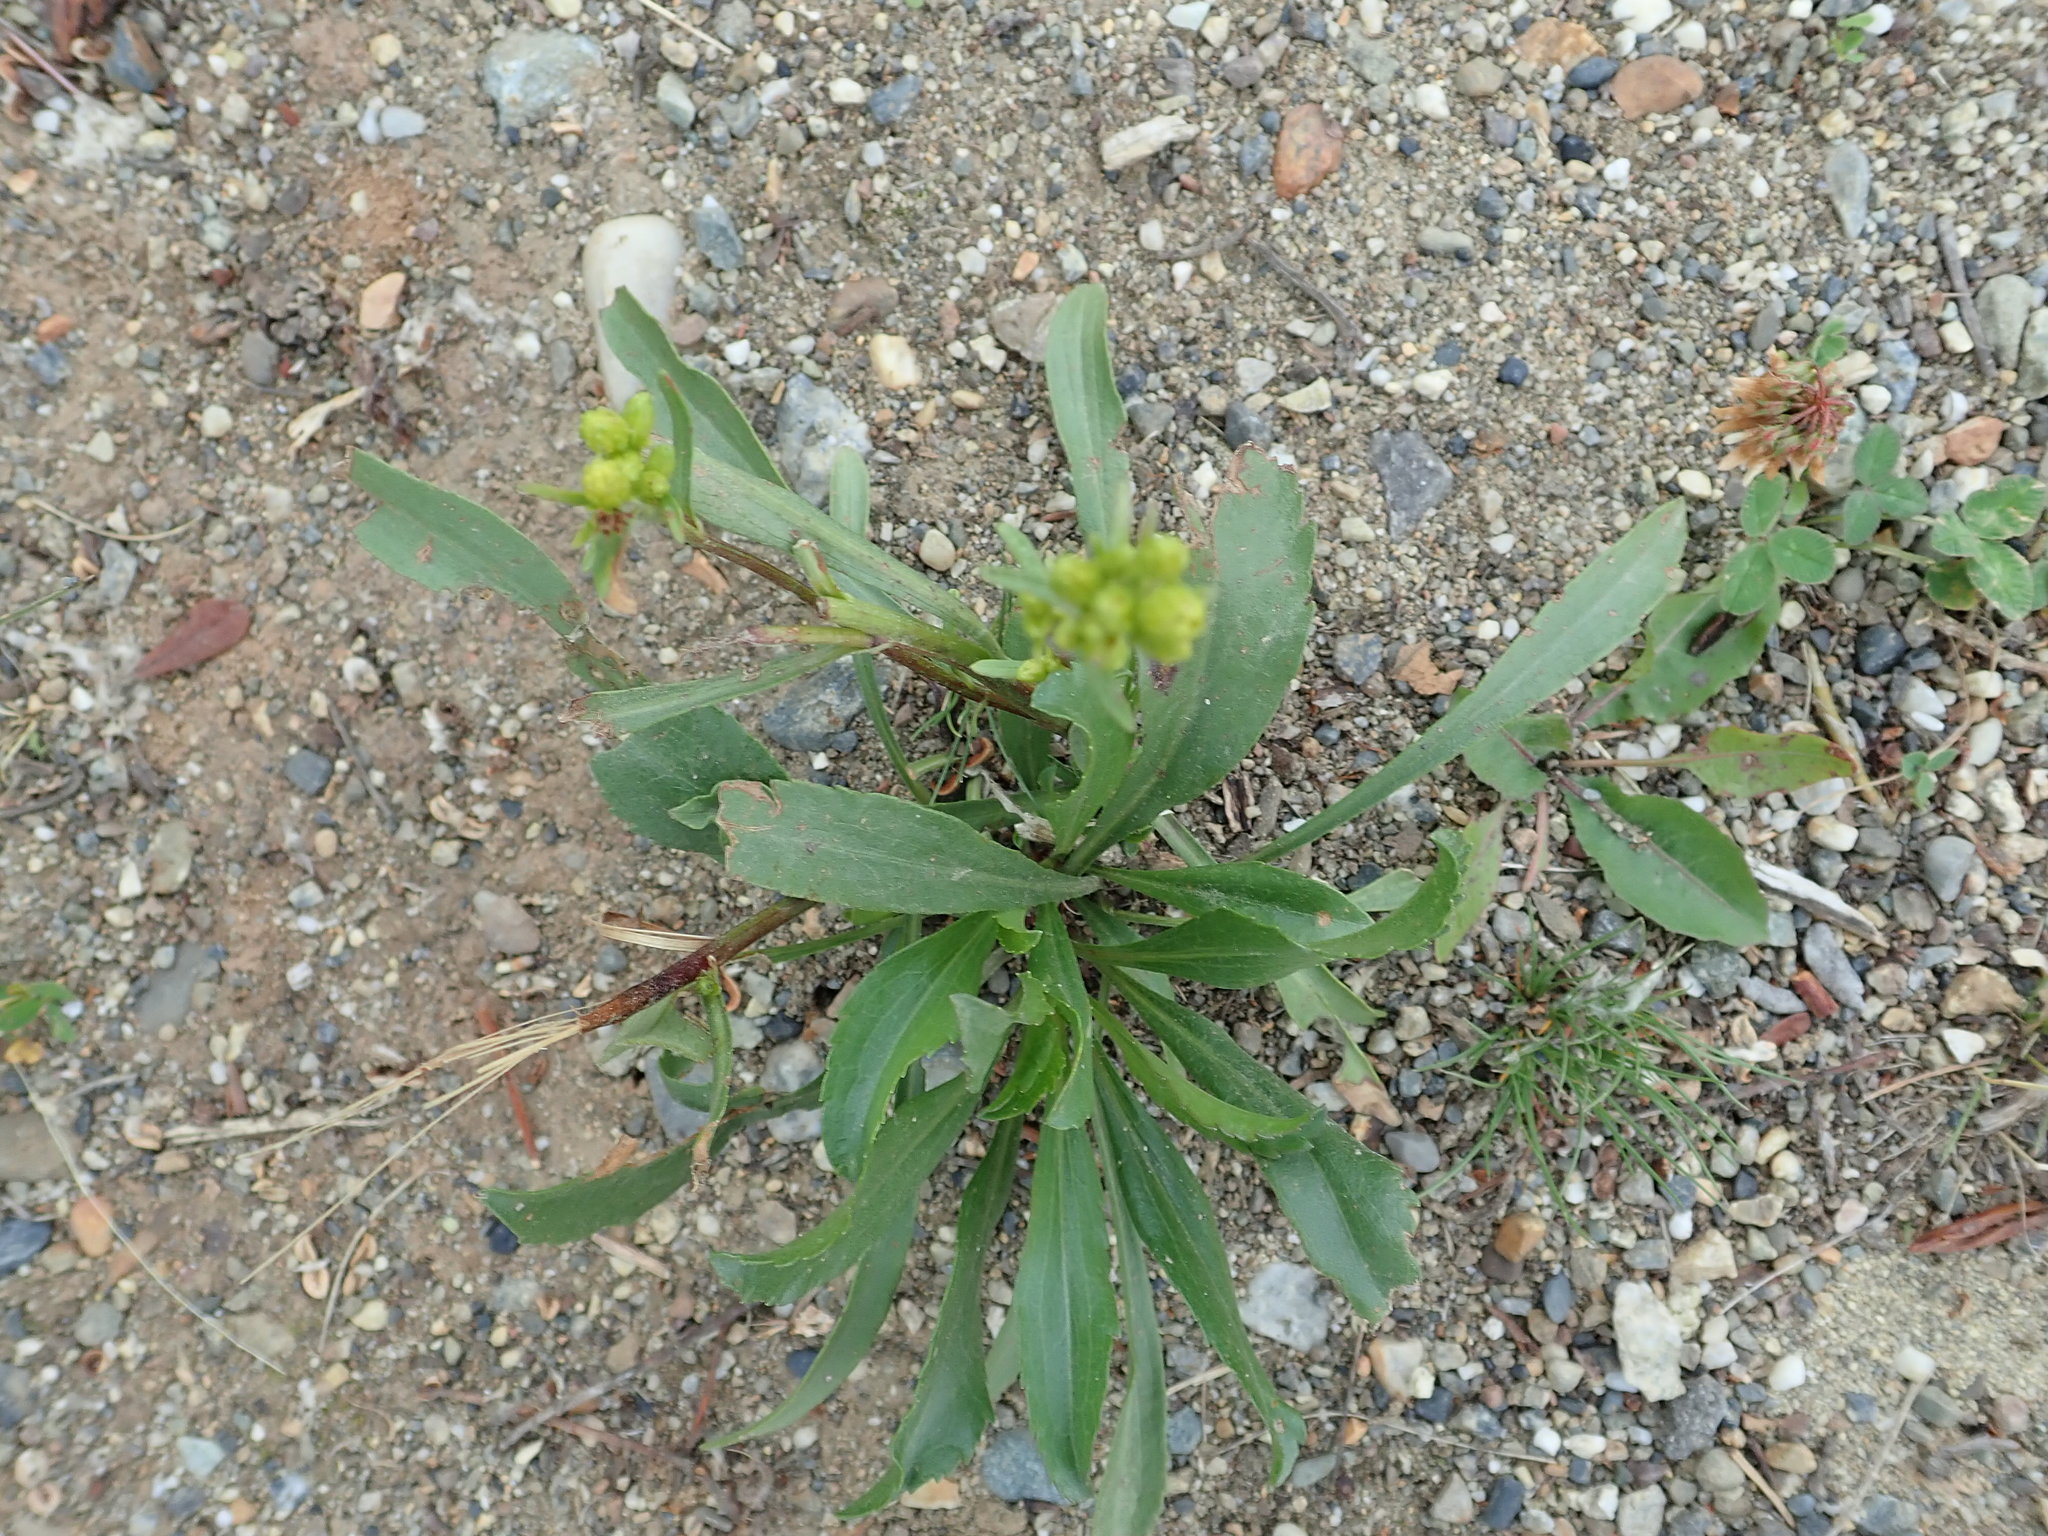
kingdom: Plantae
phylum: Tracheophyta
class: Magnoliopsida
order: Asterales
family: Asteraceae
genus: Solidago
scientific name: Solidago glutinosa
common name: Decumbent goldenrod
